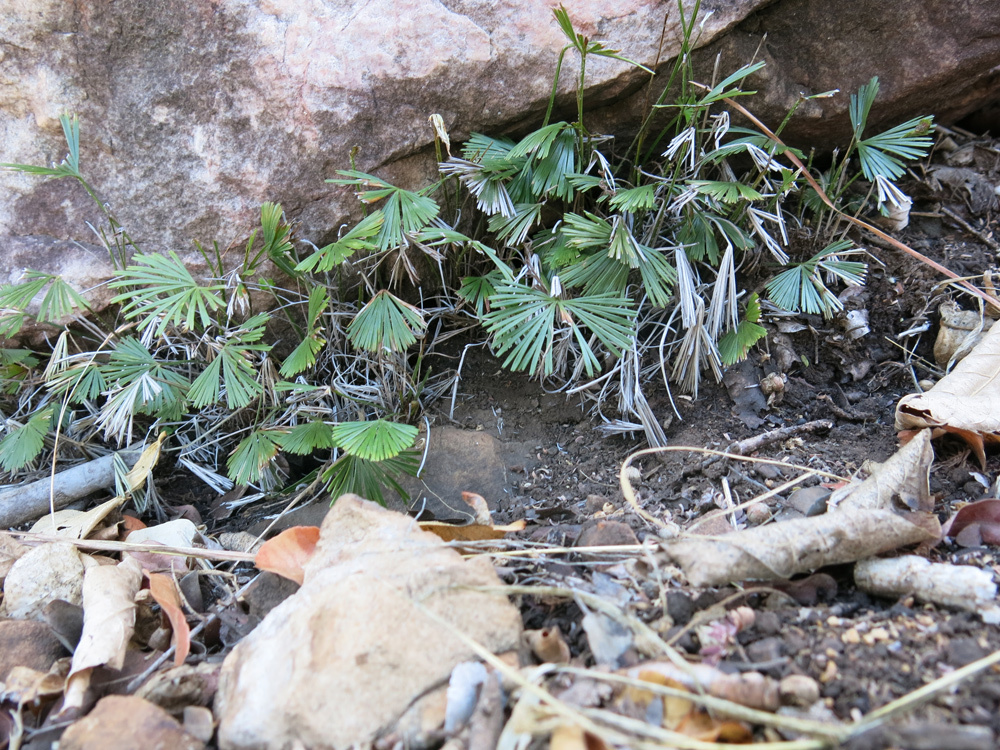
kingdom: Plantae
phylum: Tracheophyta
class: Polypodiopsida
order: Polypodiales
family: Pteridaceae
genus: Actiniopteris
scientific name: Actiniopteris radiata
